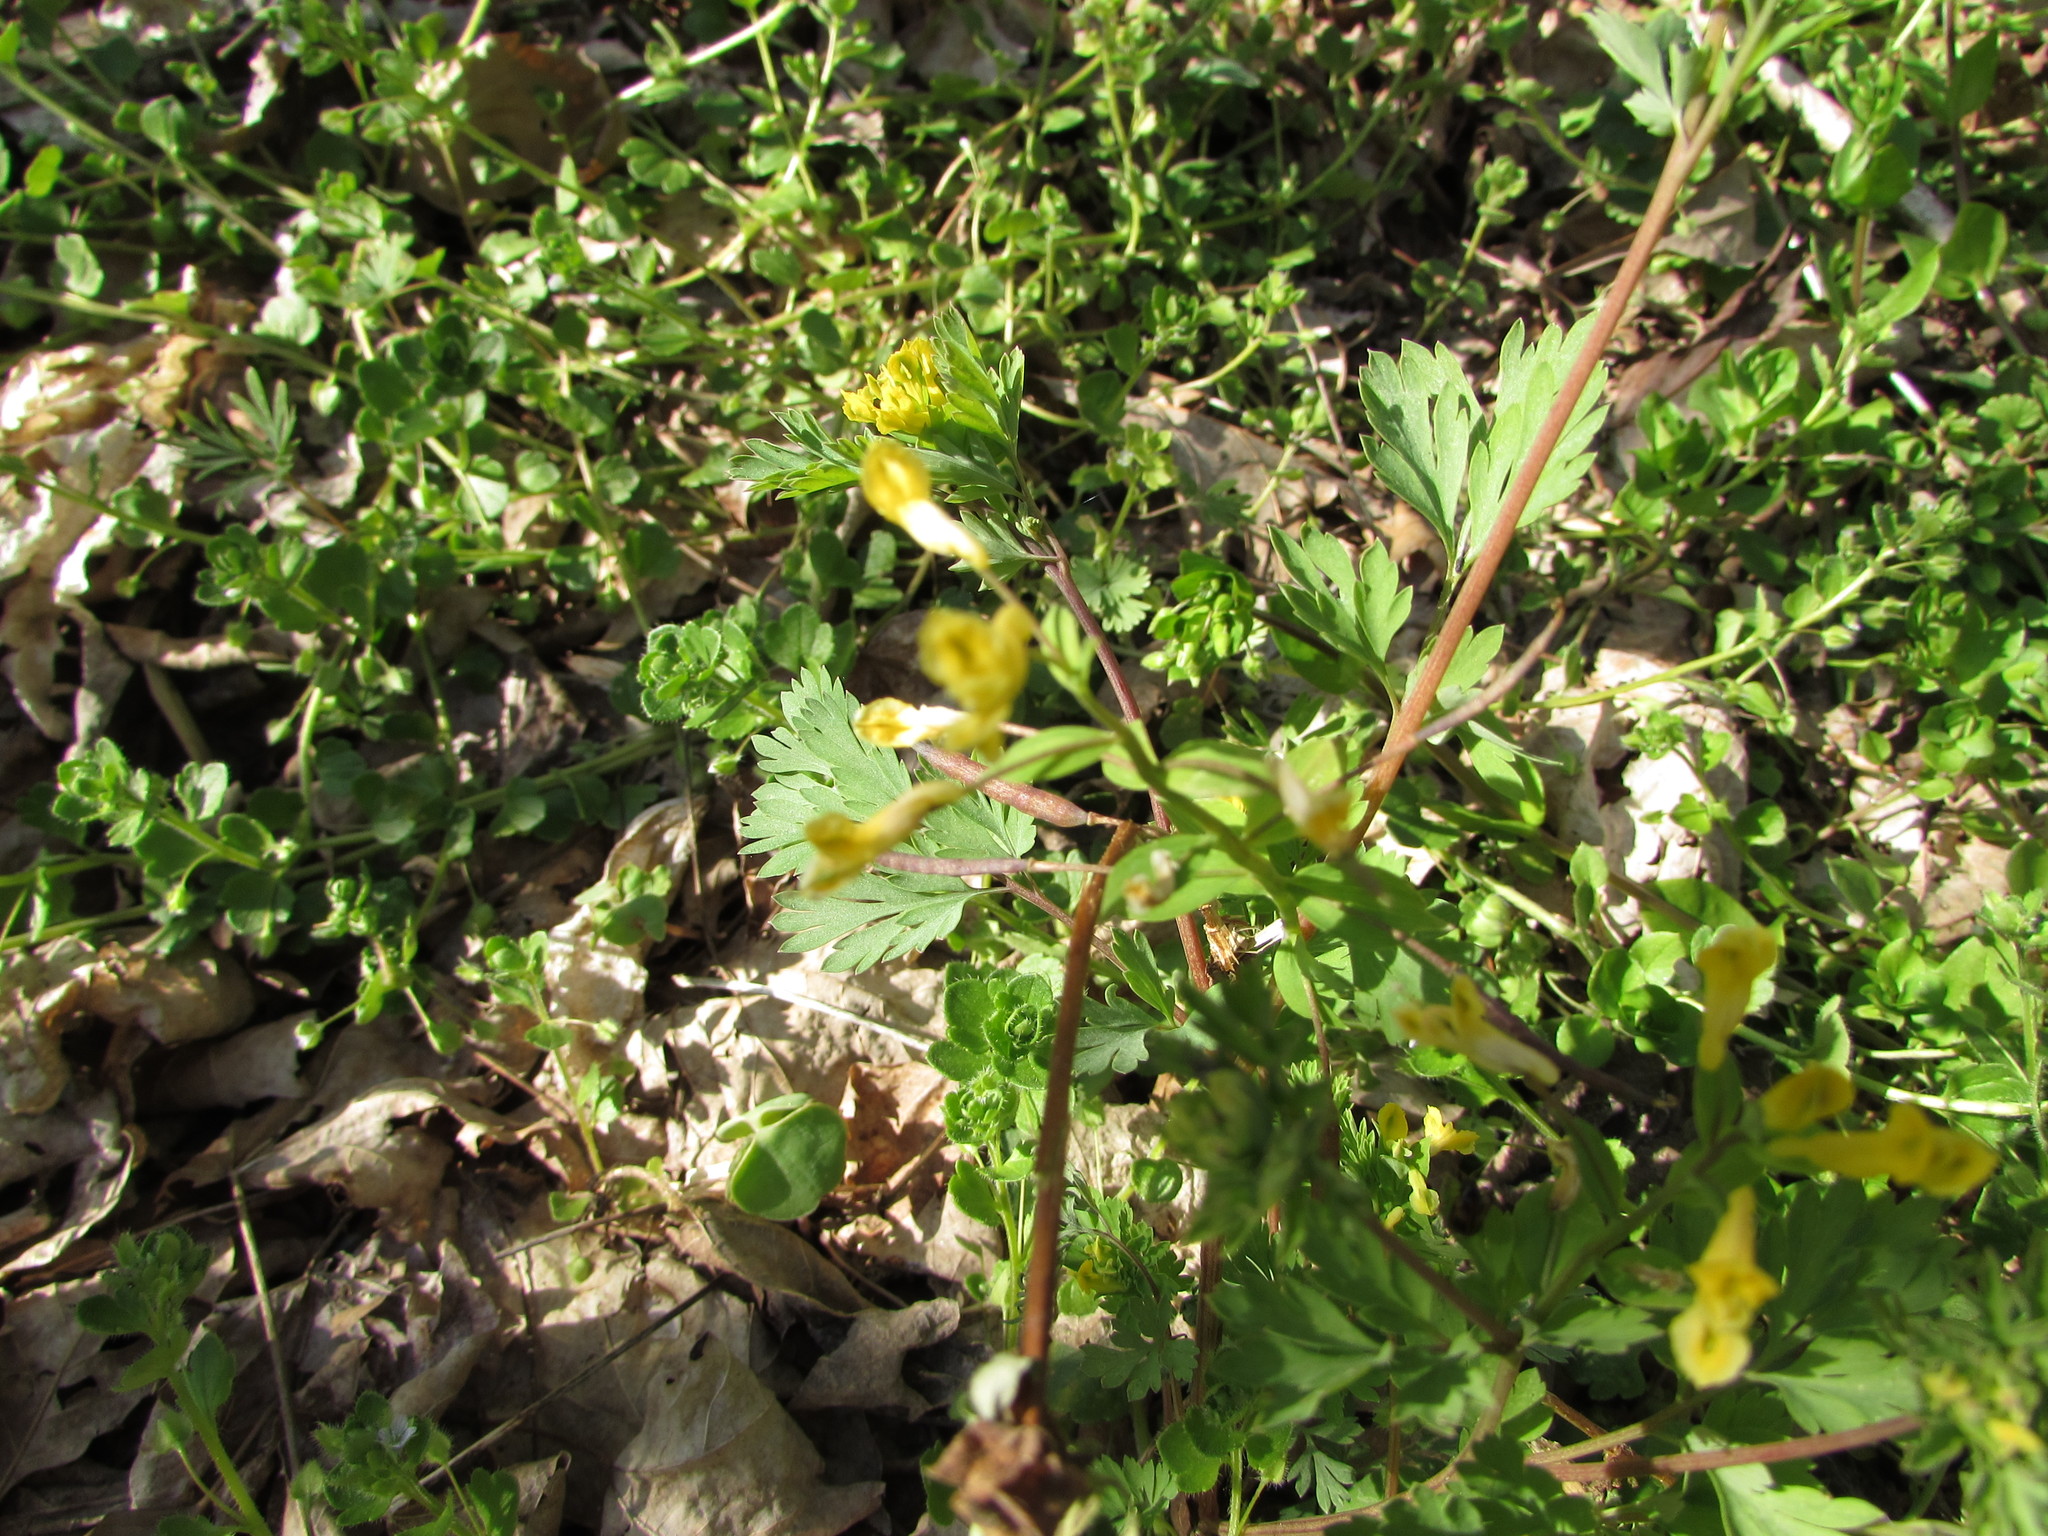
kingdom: Plantae
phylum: Tracheophyta
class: Magnoliopsida
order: Ranunculales
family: Papaveraceae
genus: Corydalis
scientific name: Corydalis flavula
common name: Yellow corydalis
